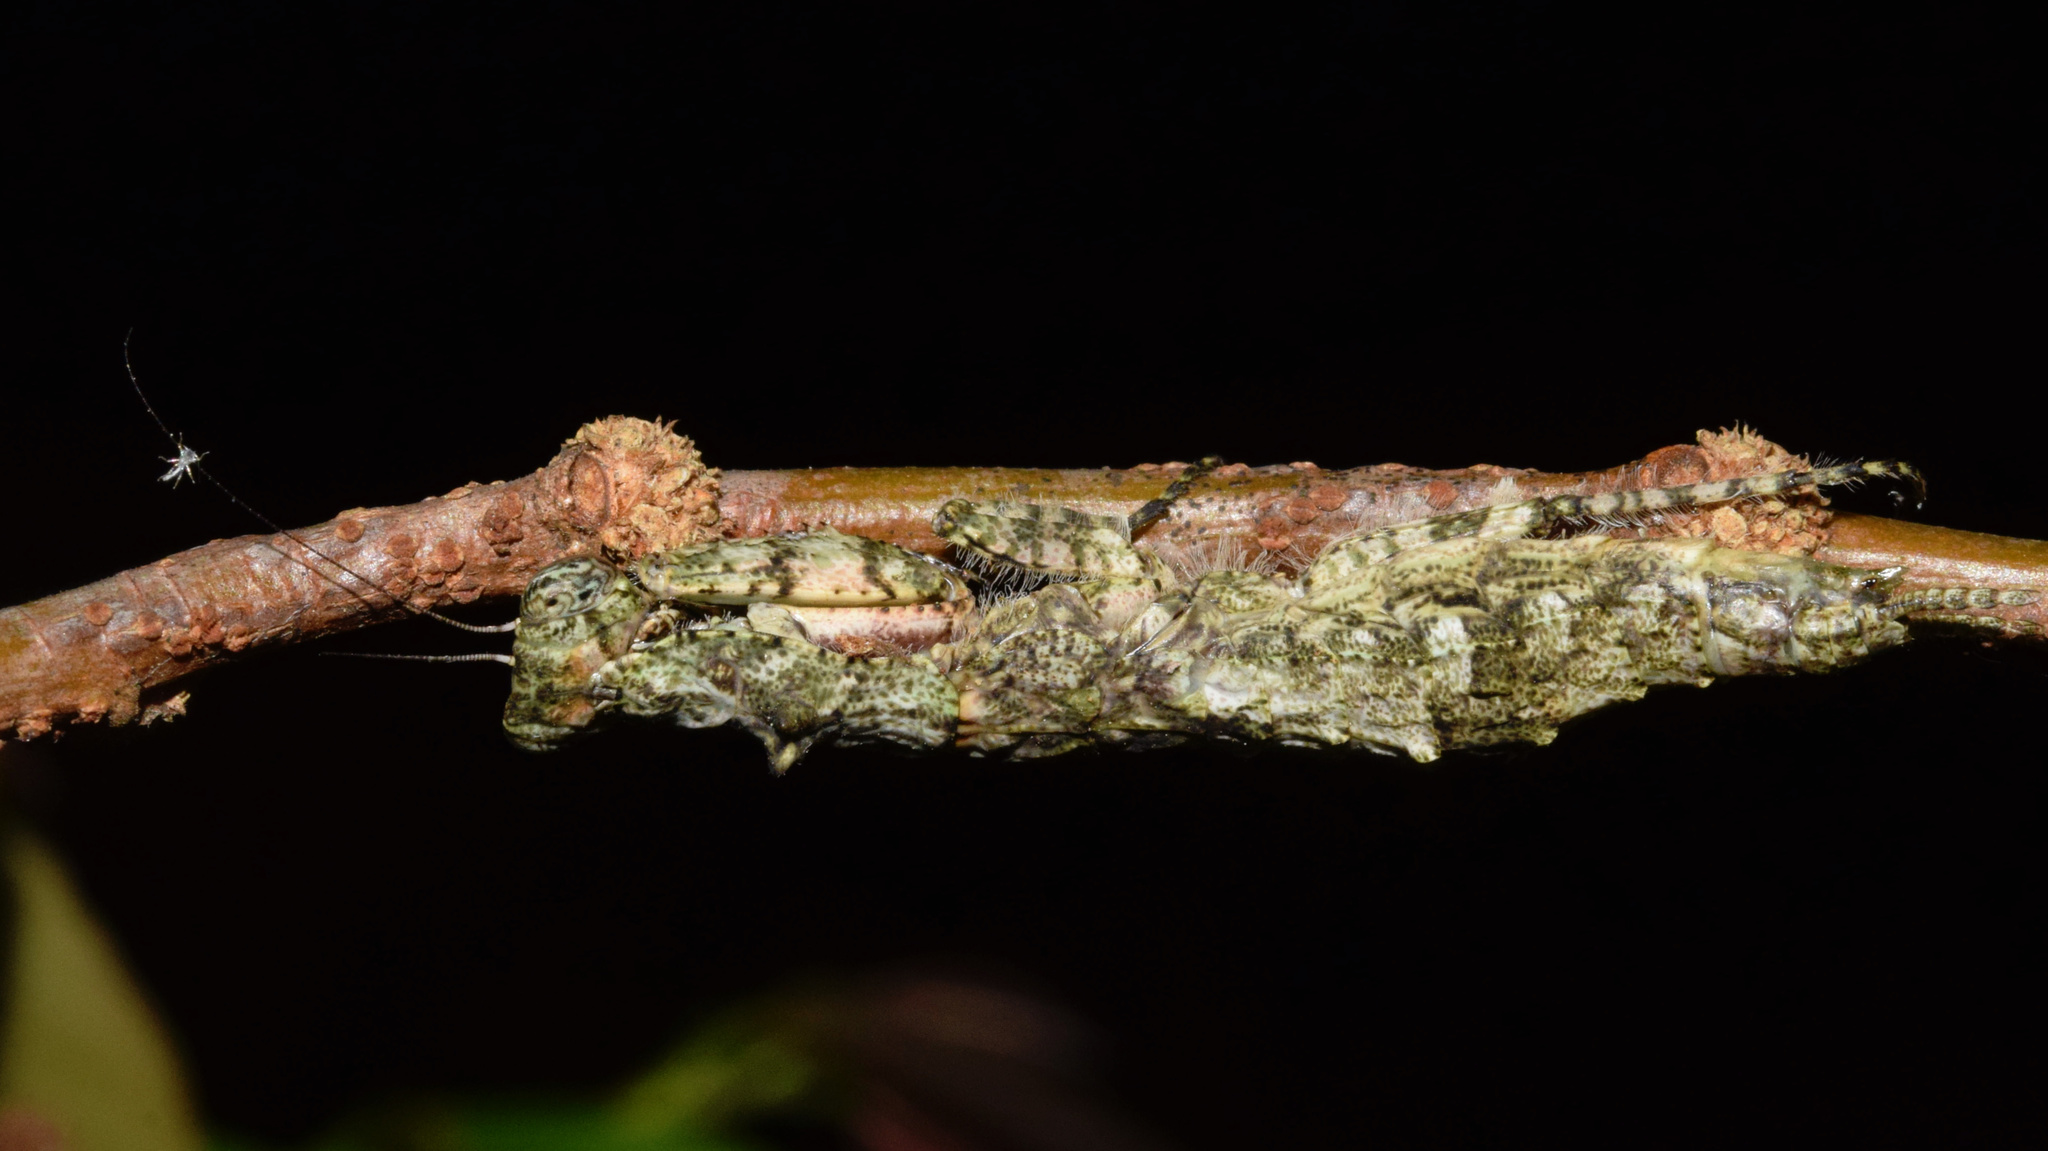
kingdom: Animalia
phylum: Arthropoda
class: Insecta
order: Mantodea
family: Eremiaphilidae
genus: Tarachodes
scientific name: Tarachodes sanctus
